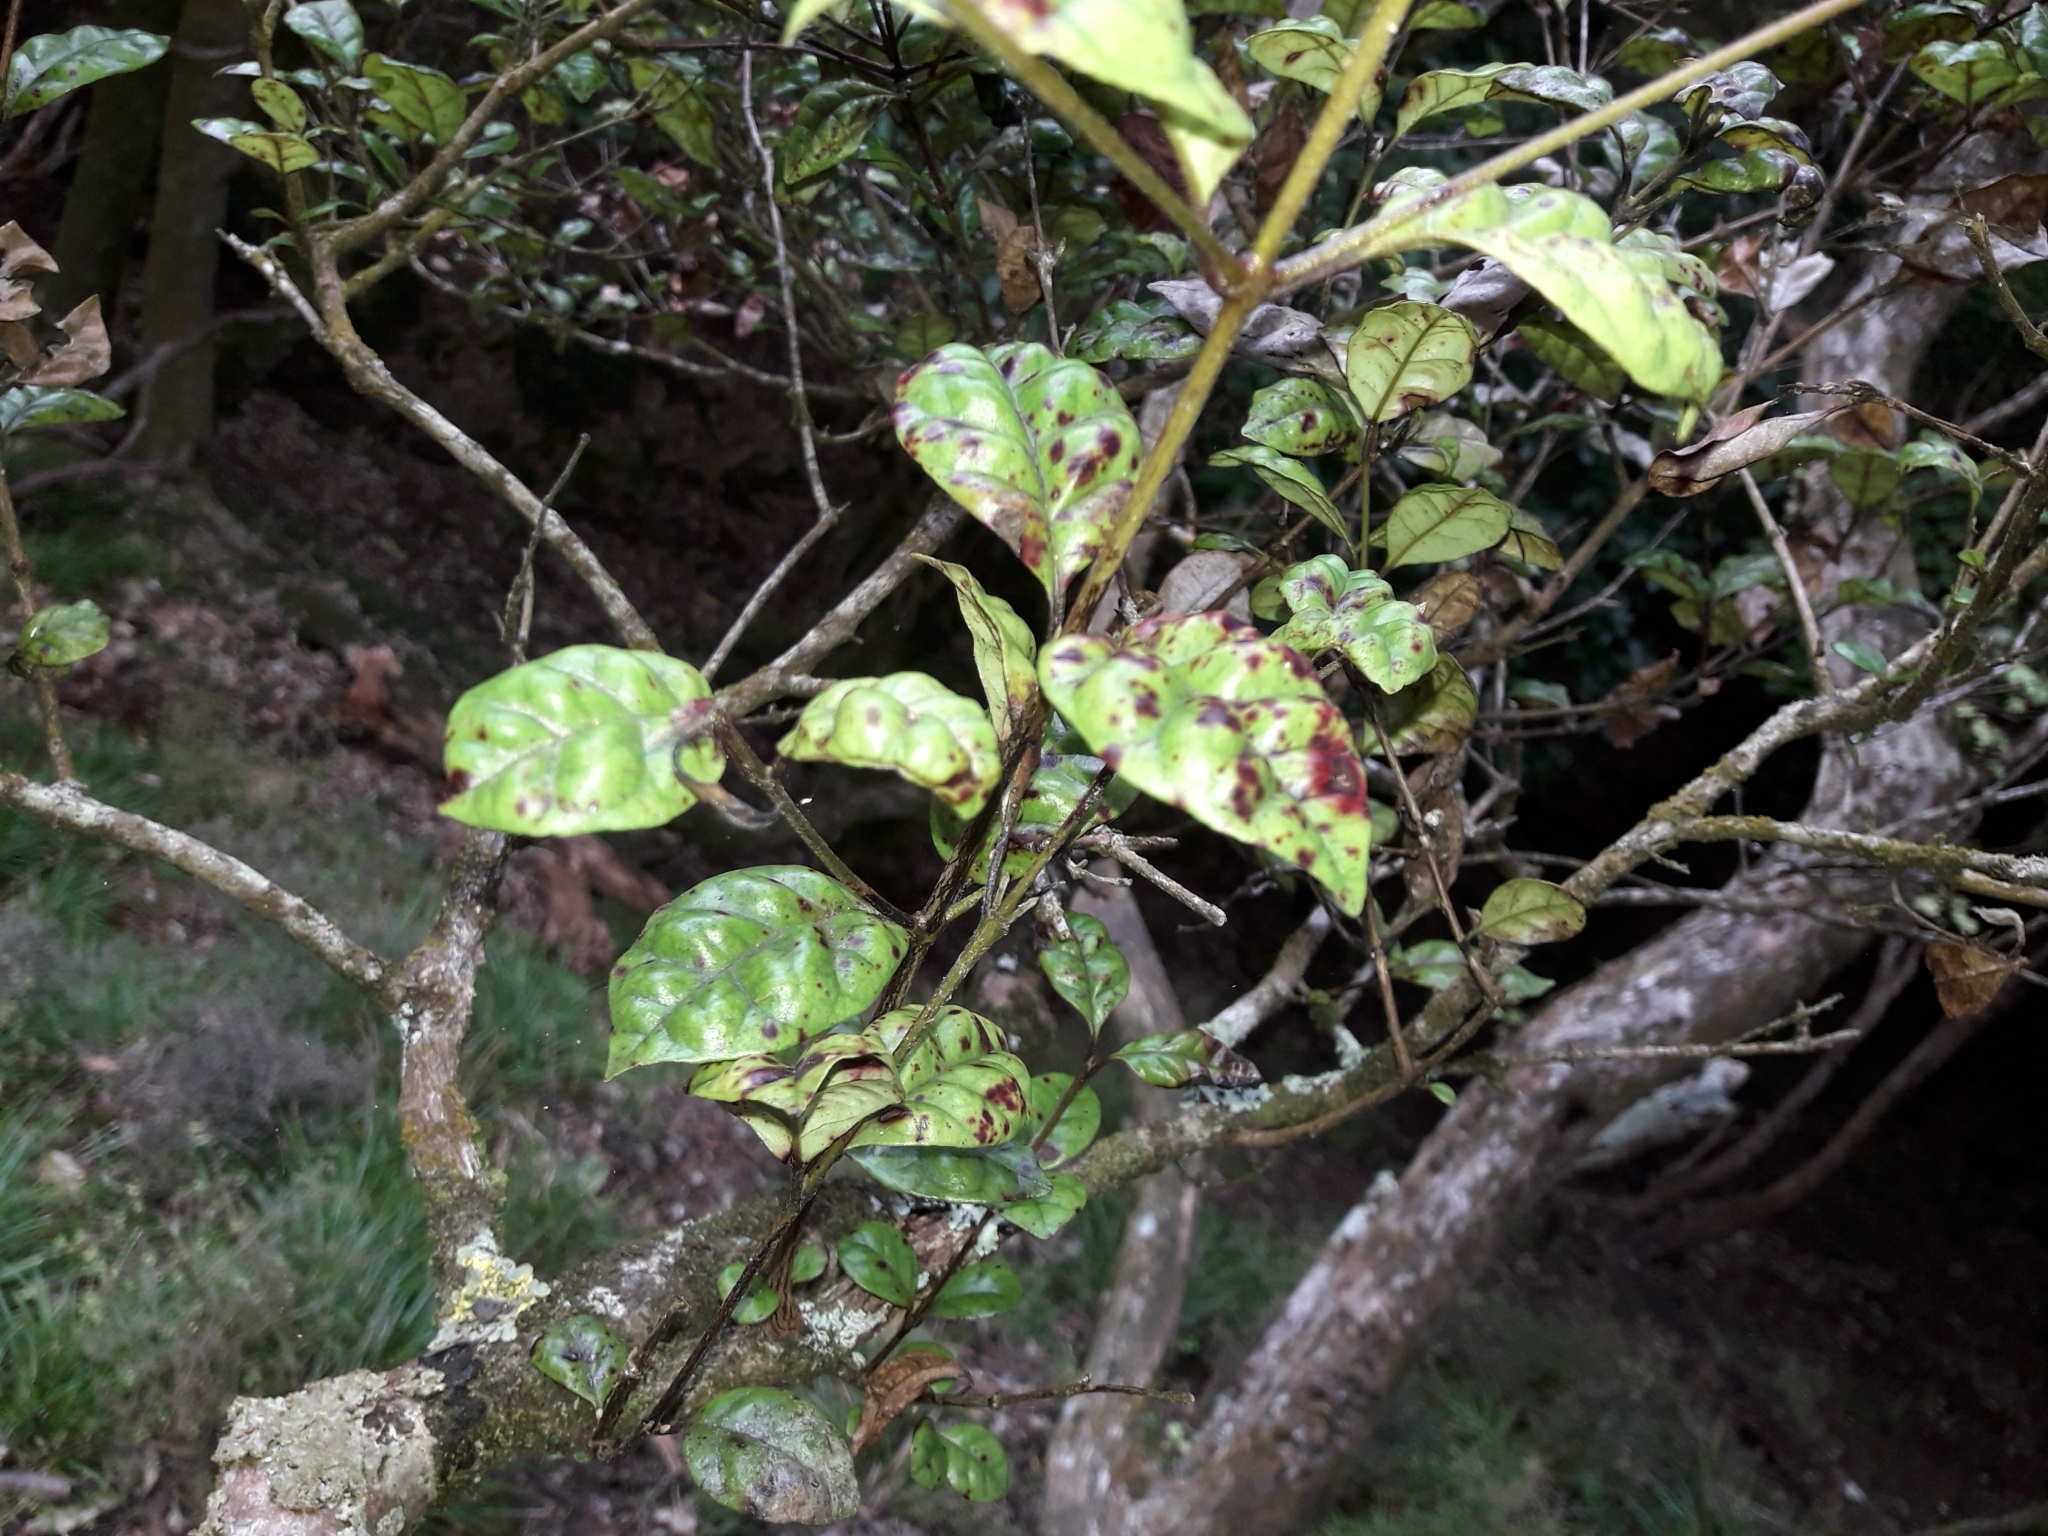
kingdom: Plantae
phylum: Tracheophyta
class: Magnoliopsida
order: Myrtales
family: Myrtaceae
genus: Lophomyrtus
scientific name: Lophomyrtus bullata
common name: Rama rama
